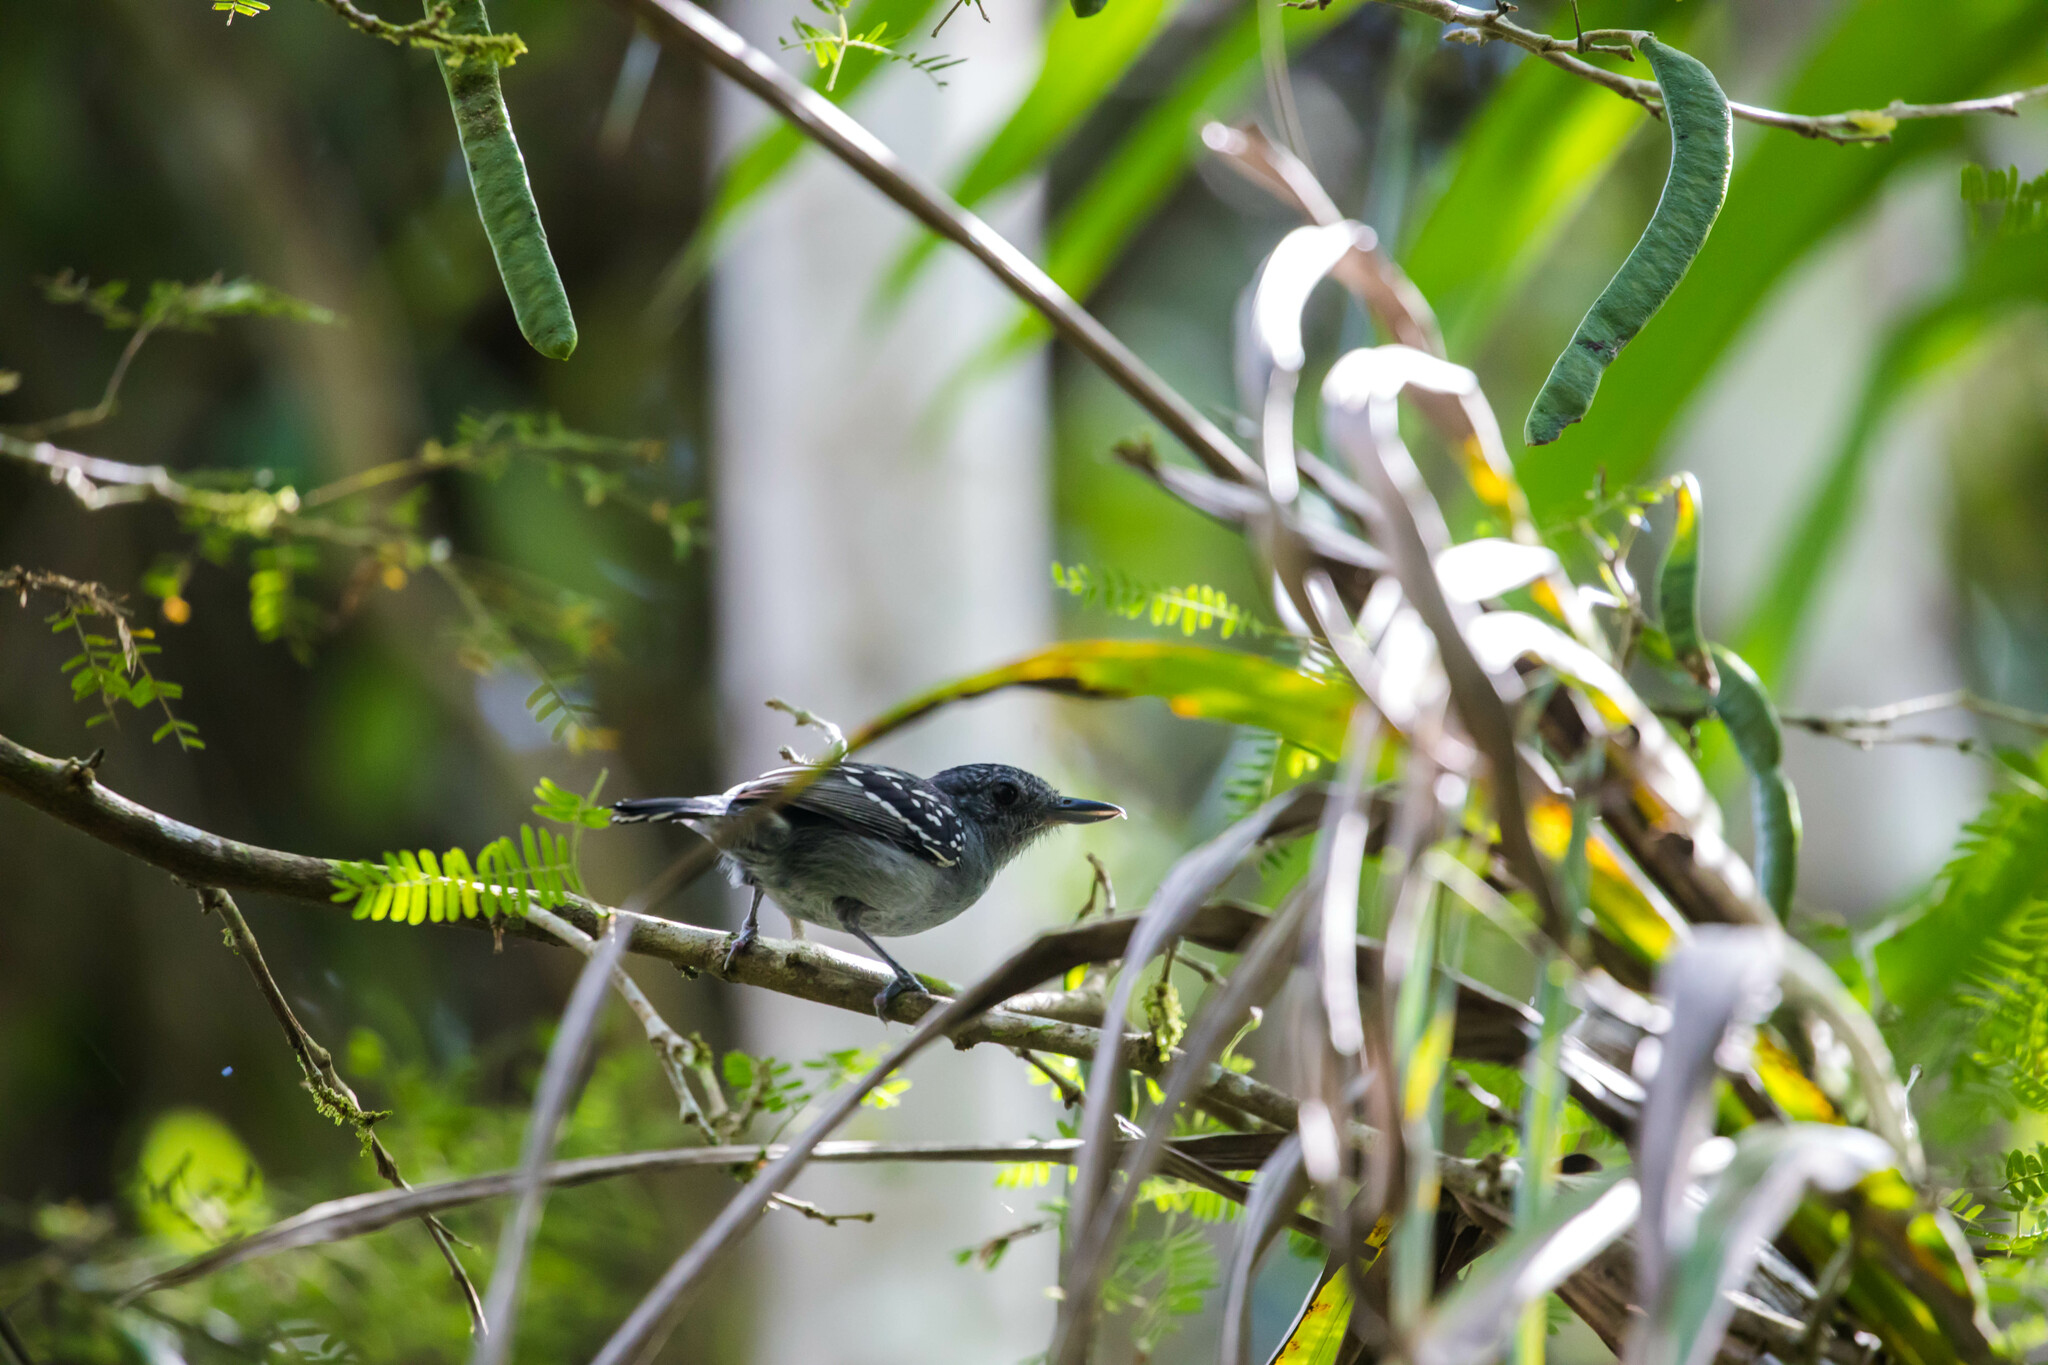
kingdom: Animalia
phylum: Chordata
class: Aves
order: Passeriformes
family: Thamnophilidae
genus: Thamnophilus
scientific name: Thamnophilus atrinucha
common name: Black-crowned antshrike
